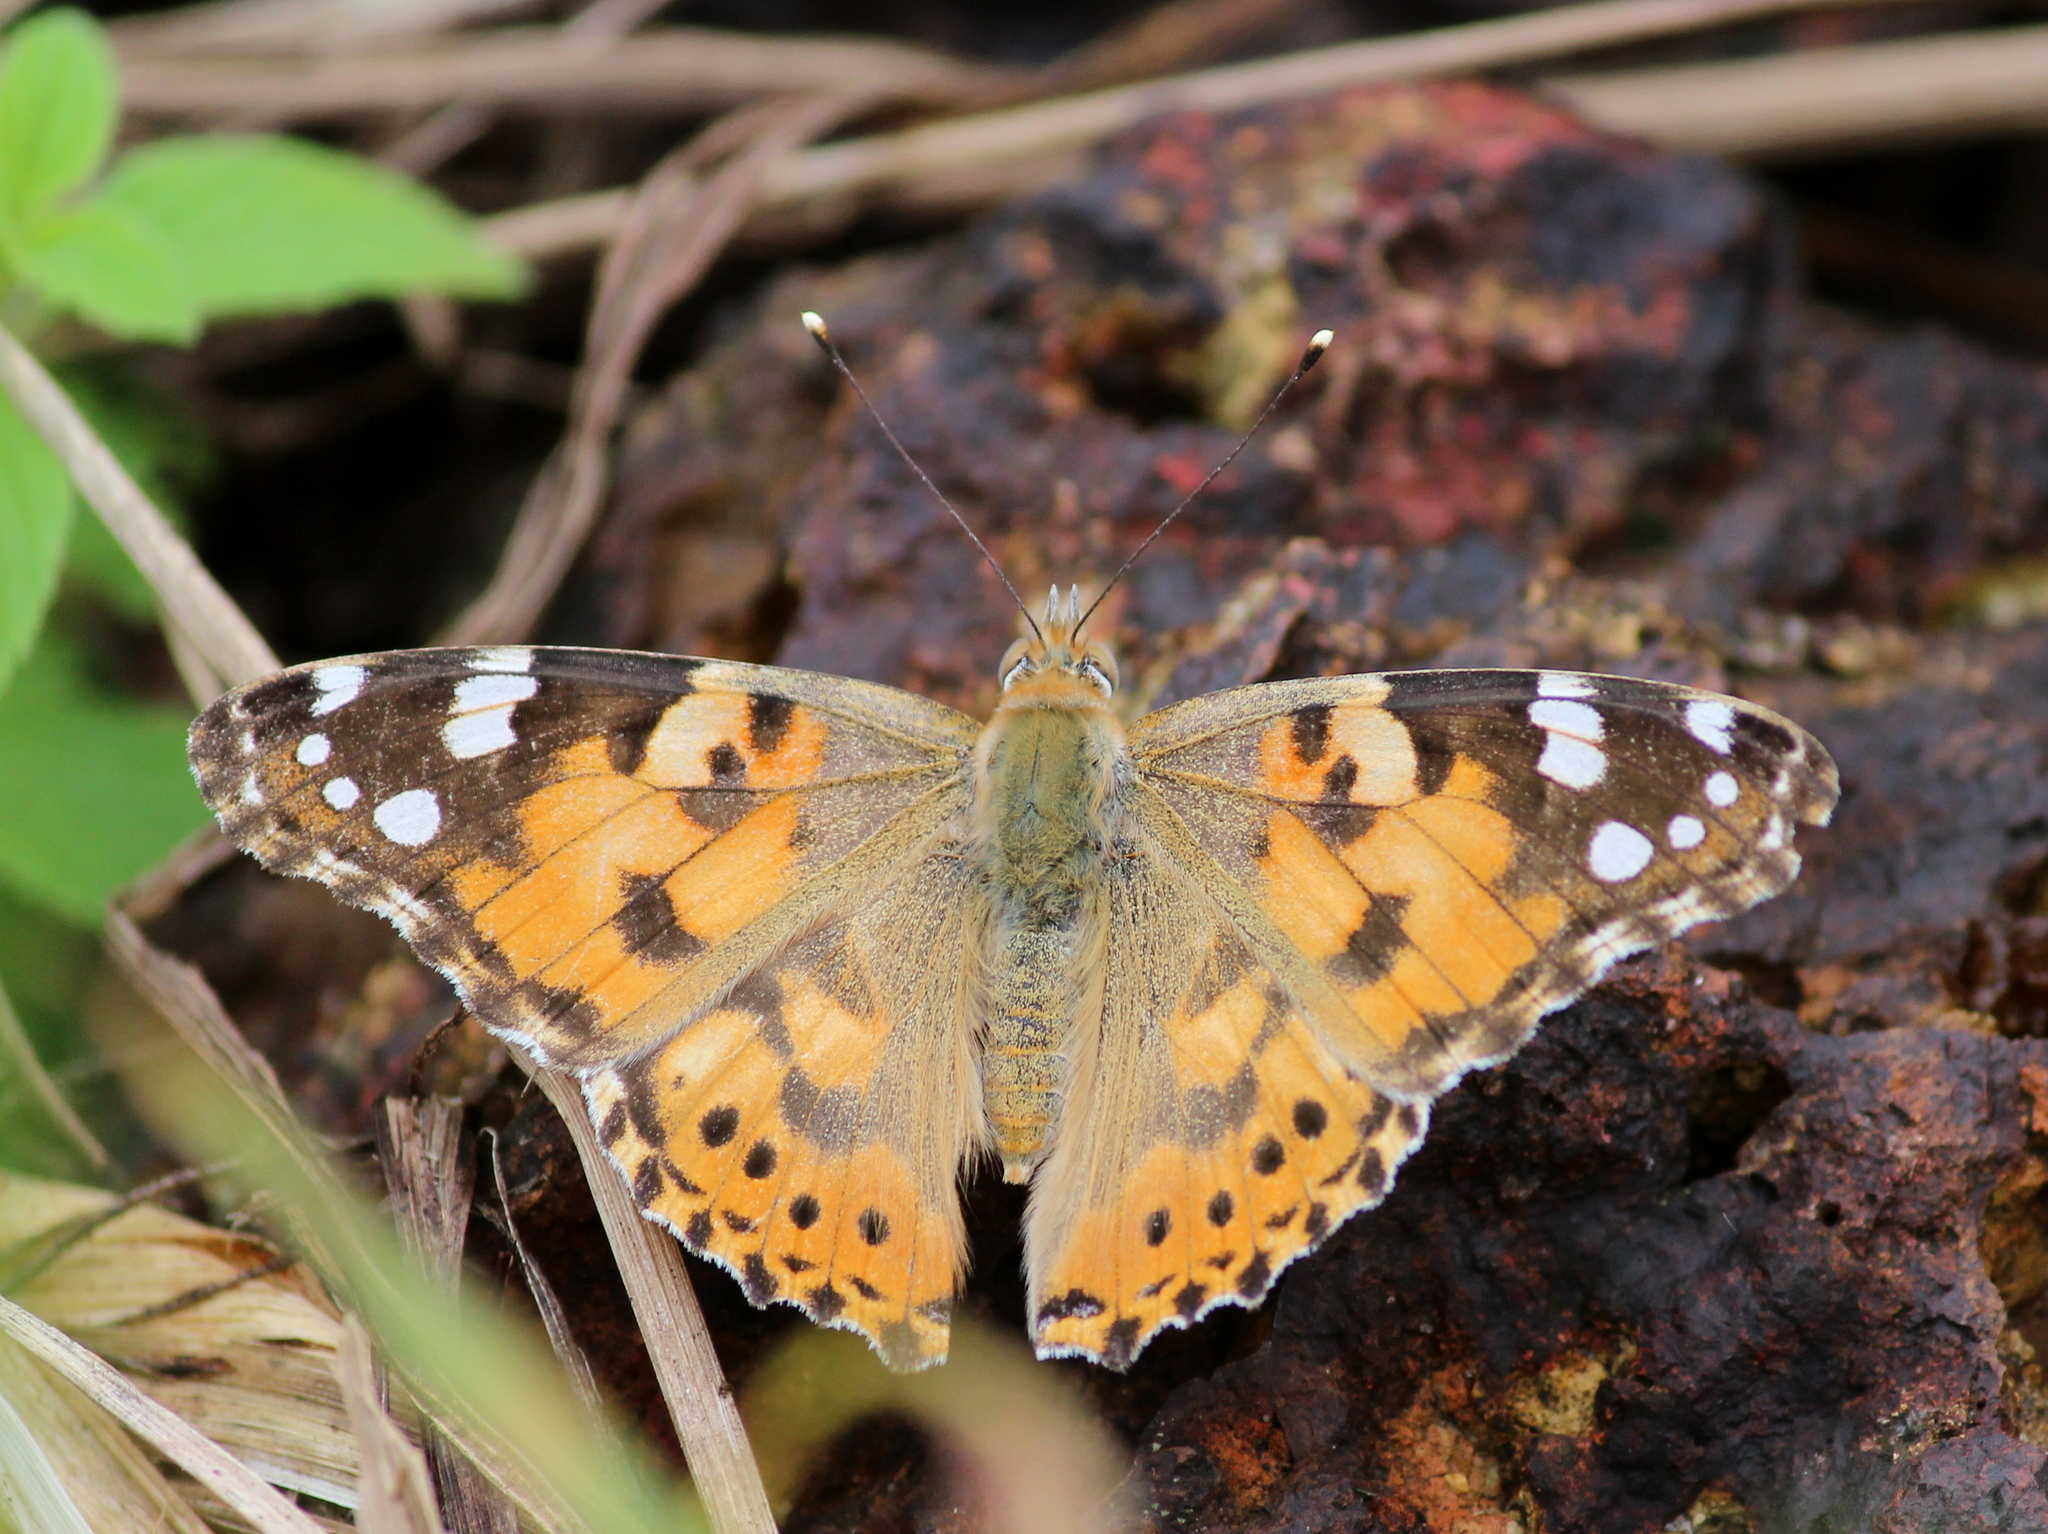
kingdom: Animalia
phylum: Arthropoda
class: Insecta
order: Lepidoptera
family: Nymphalidae
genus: Vanessa
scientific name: Vanessa cardui
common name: Painted lady
